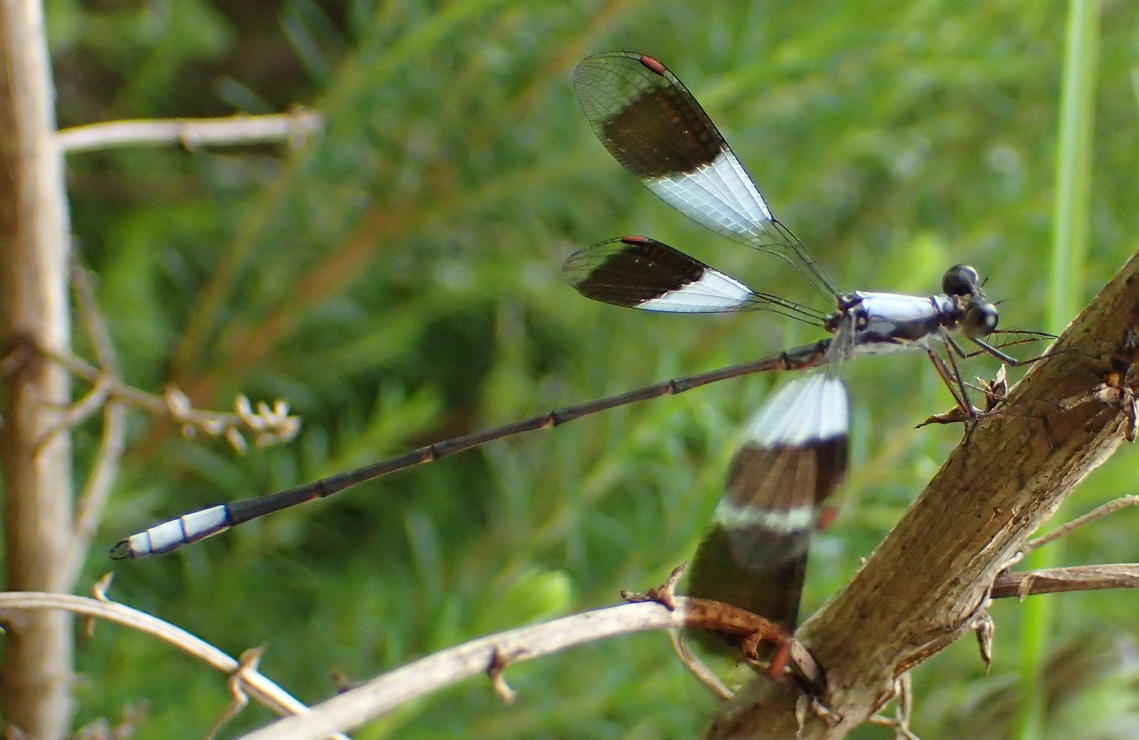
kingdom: Animalia
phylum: Arthropoda
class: Insecta
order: Odonata
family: Synlestidae
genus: Chlorolestes
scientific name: Chlorolestes umbratus
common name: White malachite
